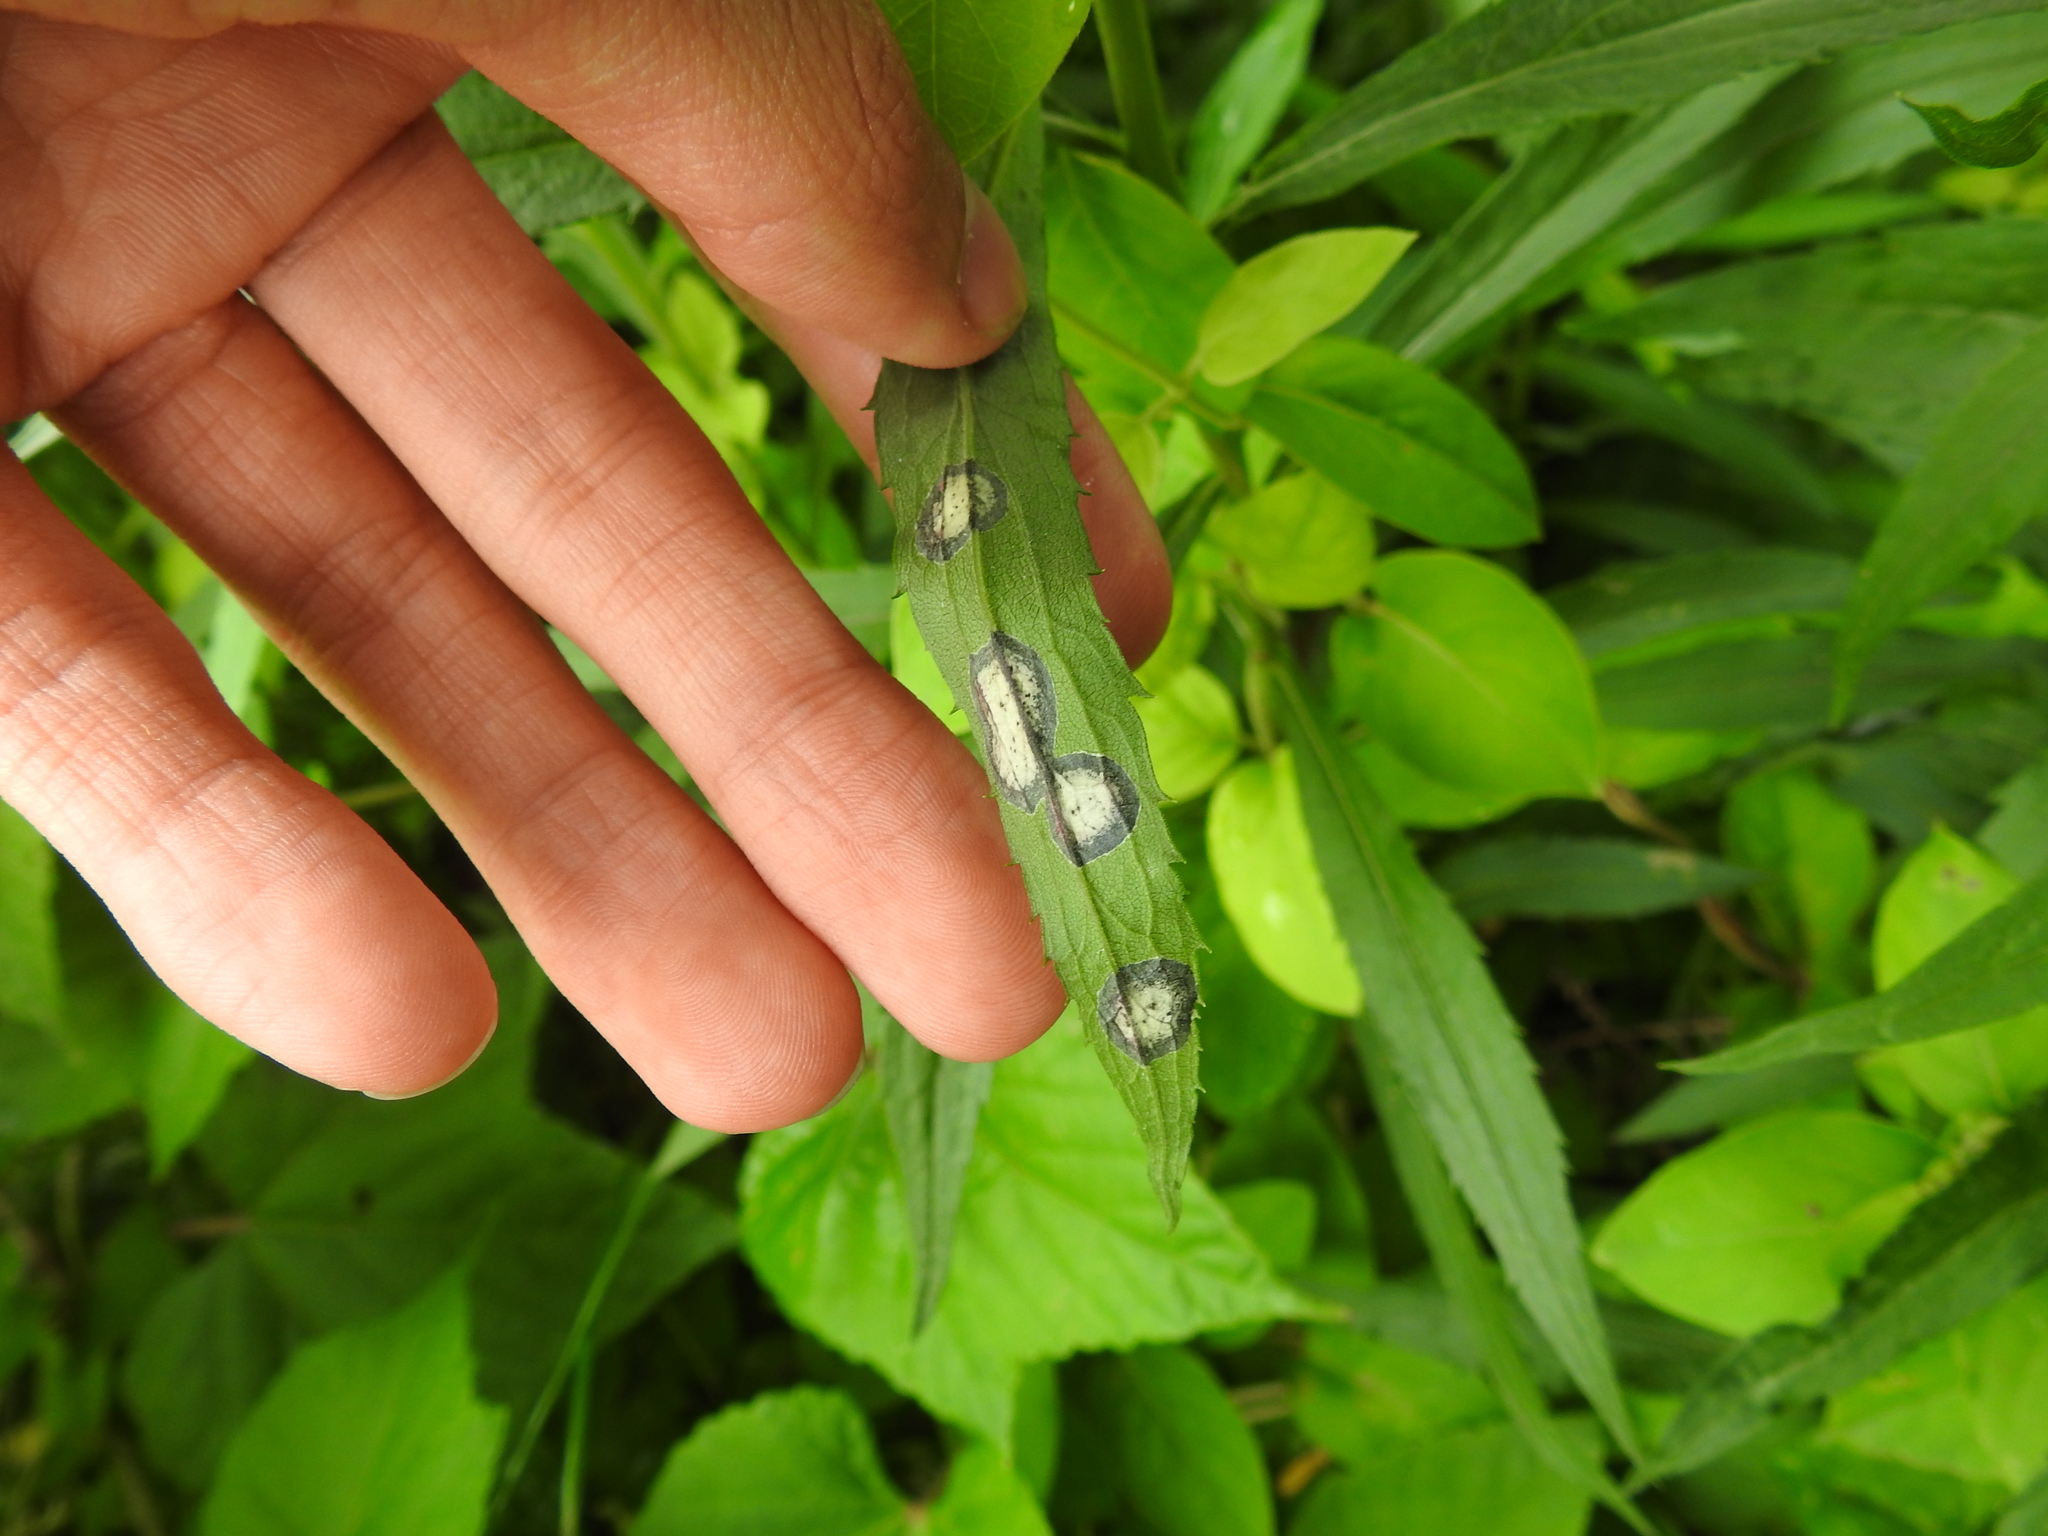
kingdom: Animalia
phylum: Arthropoda
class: Insecta
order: Diptera
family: Cecidomyiidae
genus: Asteromyia
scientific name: Asteromyia carbonifera
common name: Carbonifera goldenrod gall midge
